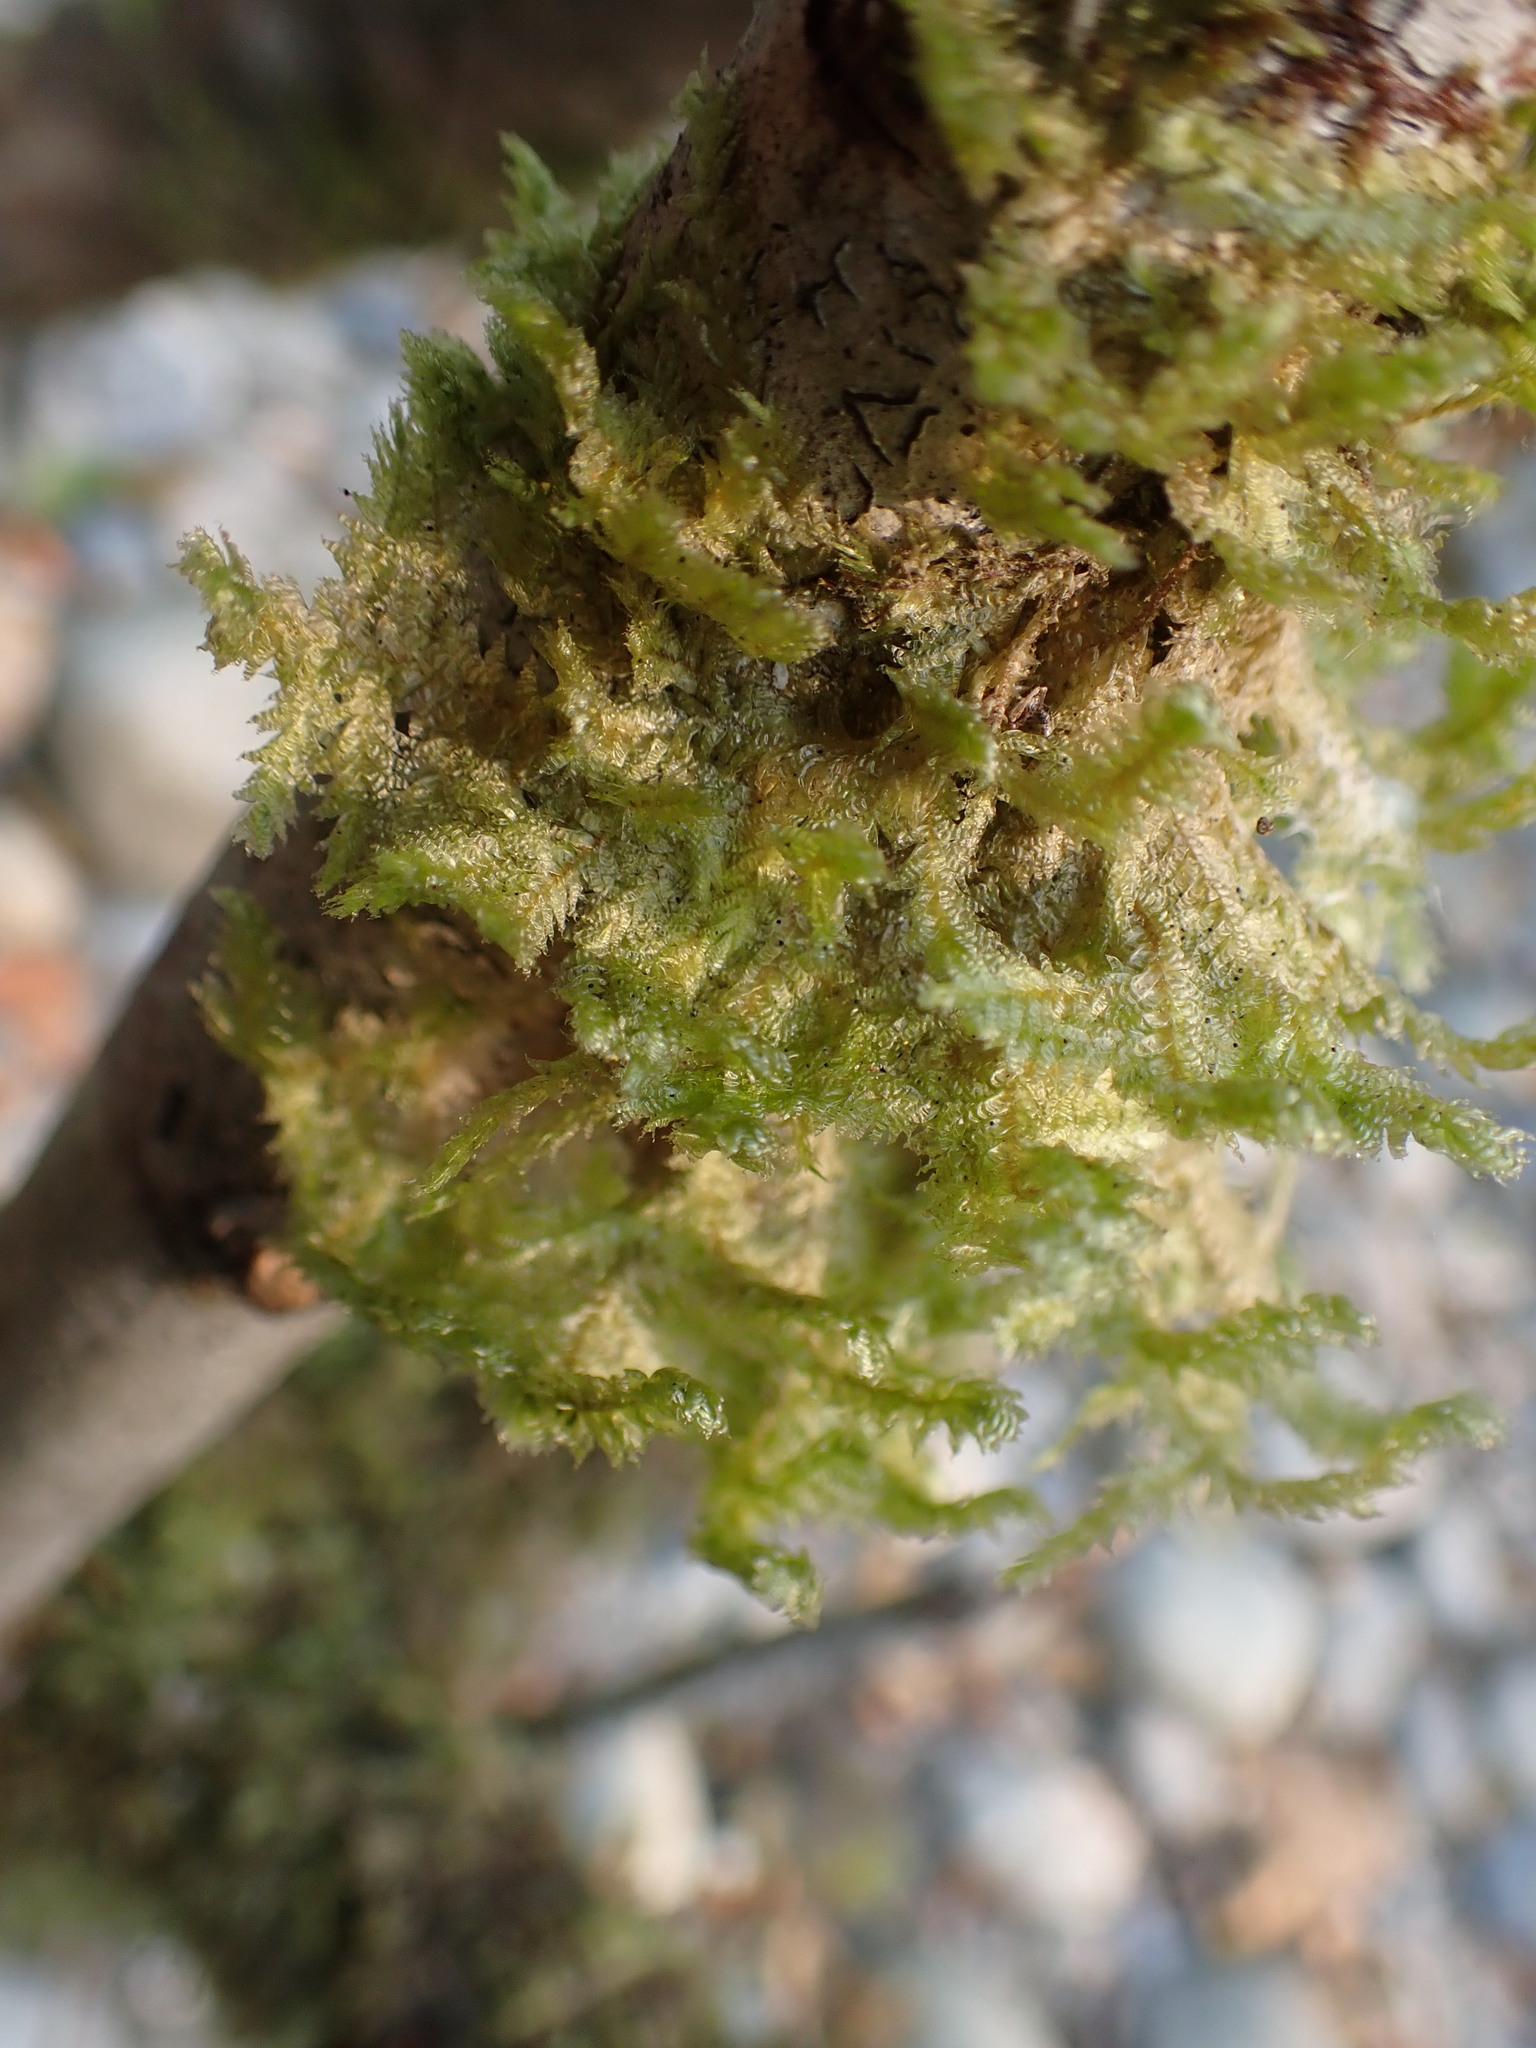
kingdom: Plantae
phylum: Bryophyta
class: Bryopsida
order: Hypnales
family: Neckeraceae
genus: Neckera
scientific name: Neckera douglasii
